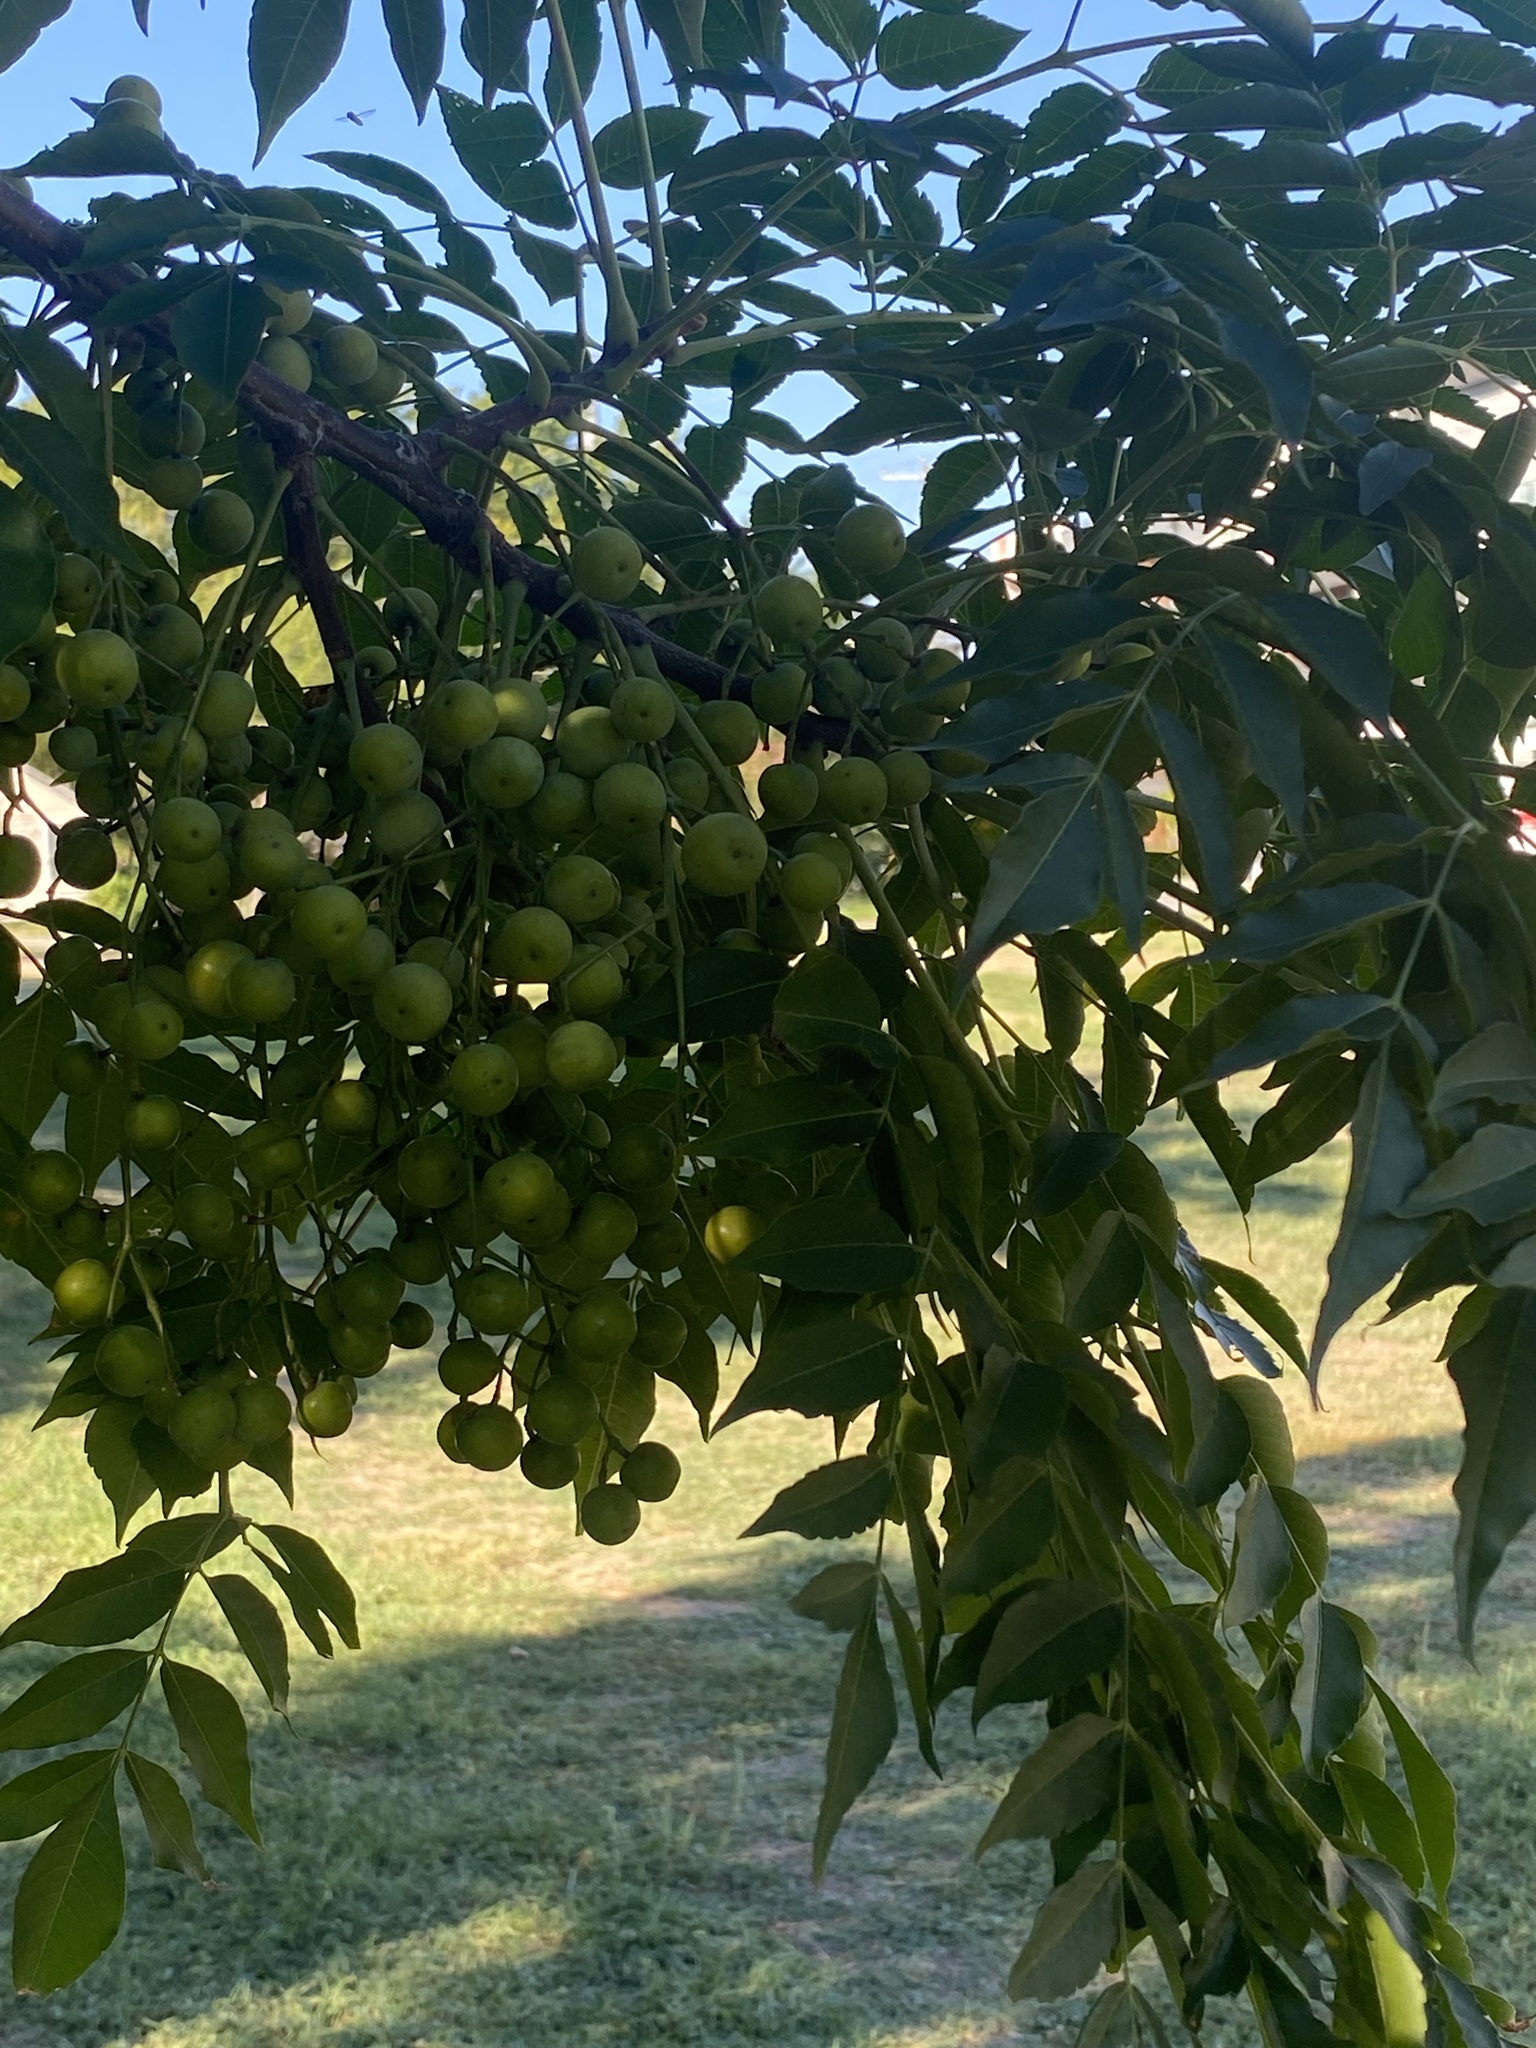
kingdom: Plantae
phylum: Tracheophyta
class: Magnoliopsida
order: Sapindales
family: Meliaceae
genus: Melia
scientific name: Melia azedarach
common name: Chinaberrytree
